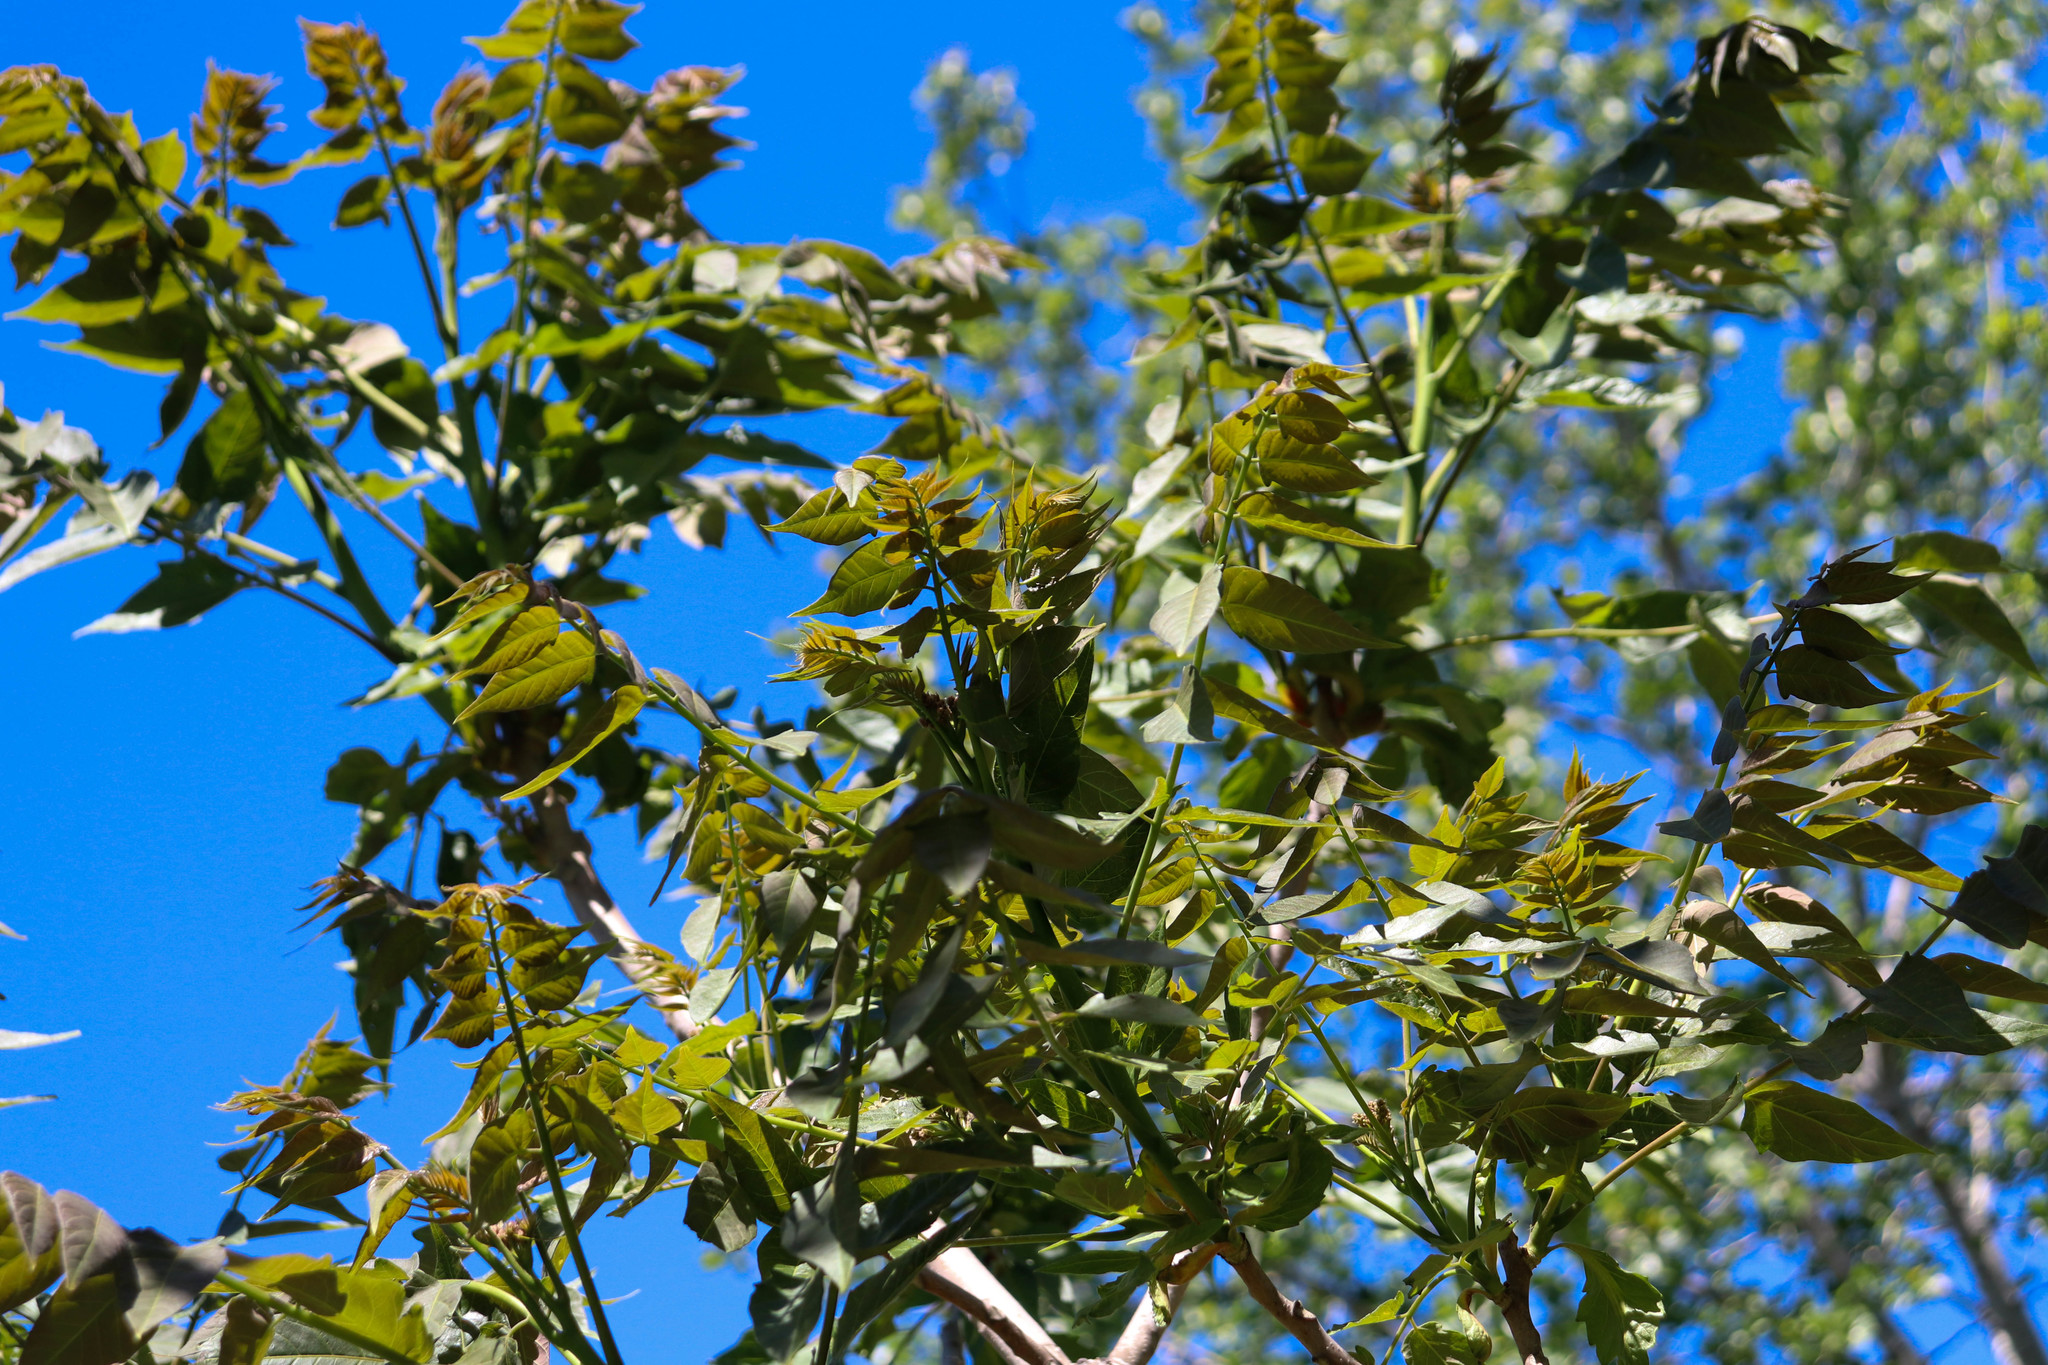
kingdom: Plantae
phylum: Tracheophyta
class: Magnoliopsida
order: Sapindales
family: Simaroubaceae
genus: Ailanthus
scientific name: Ailanthus altissima
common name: Tree-of-heaven
